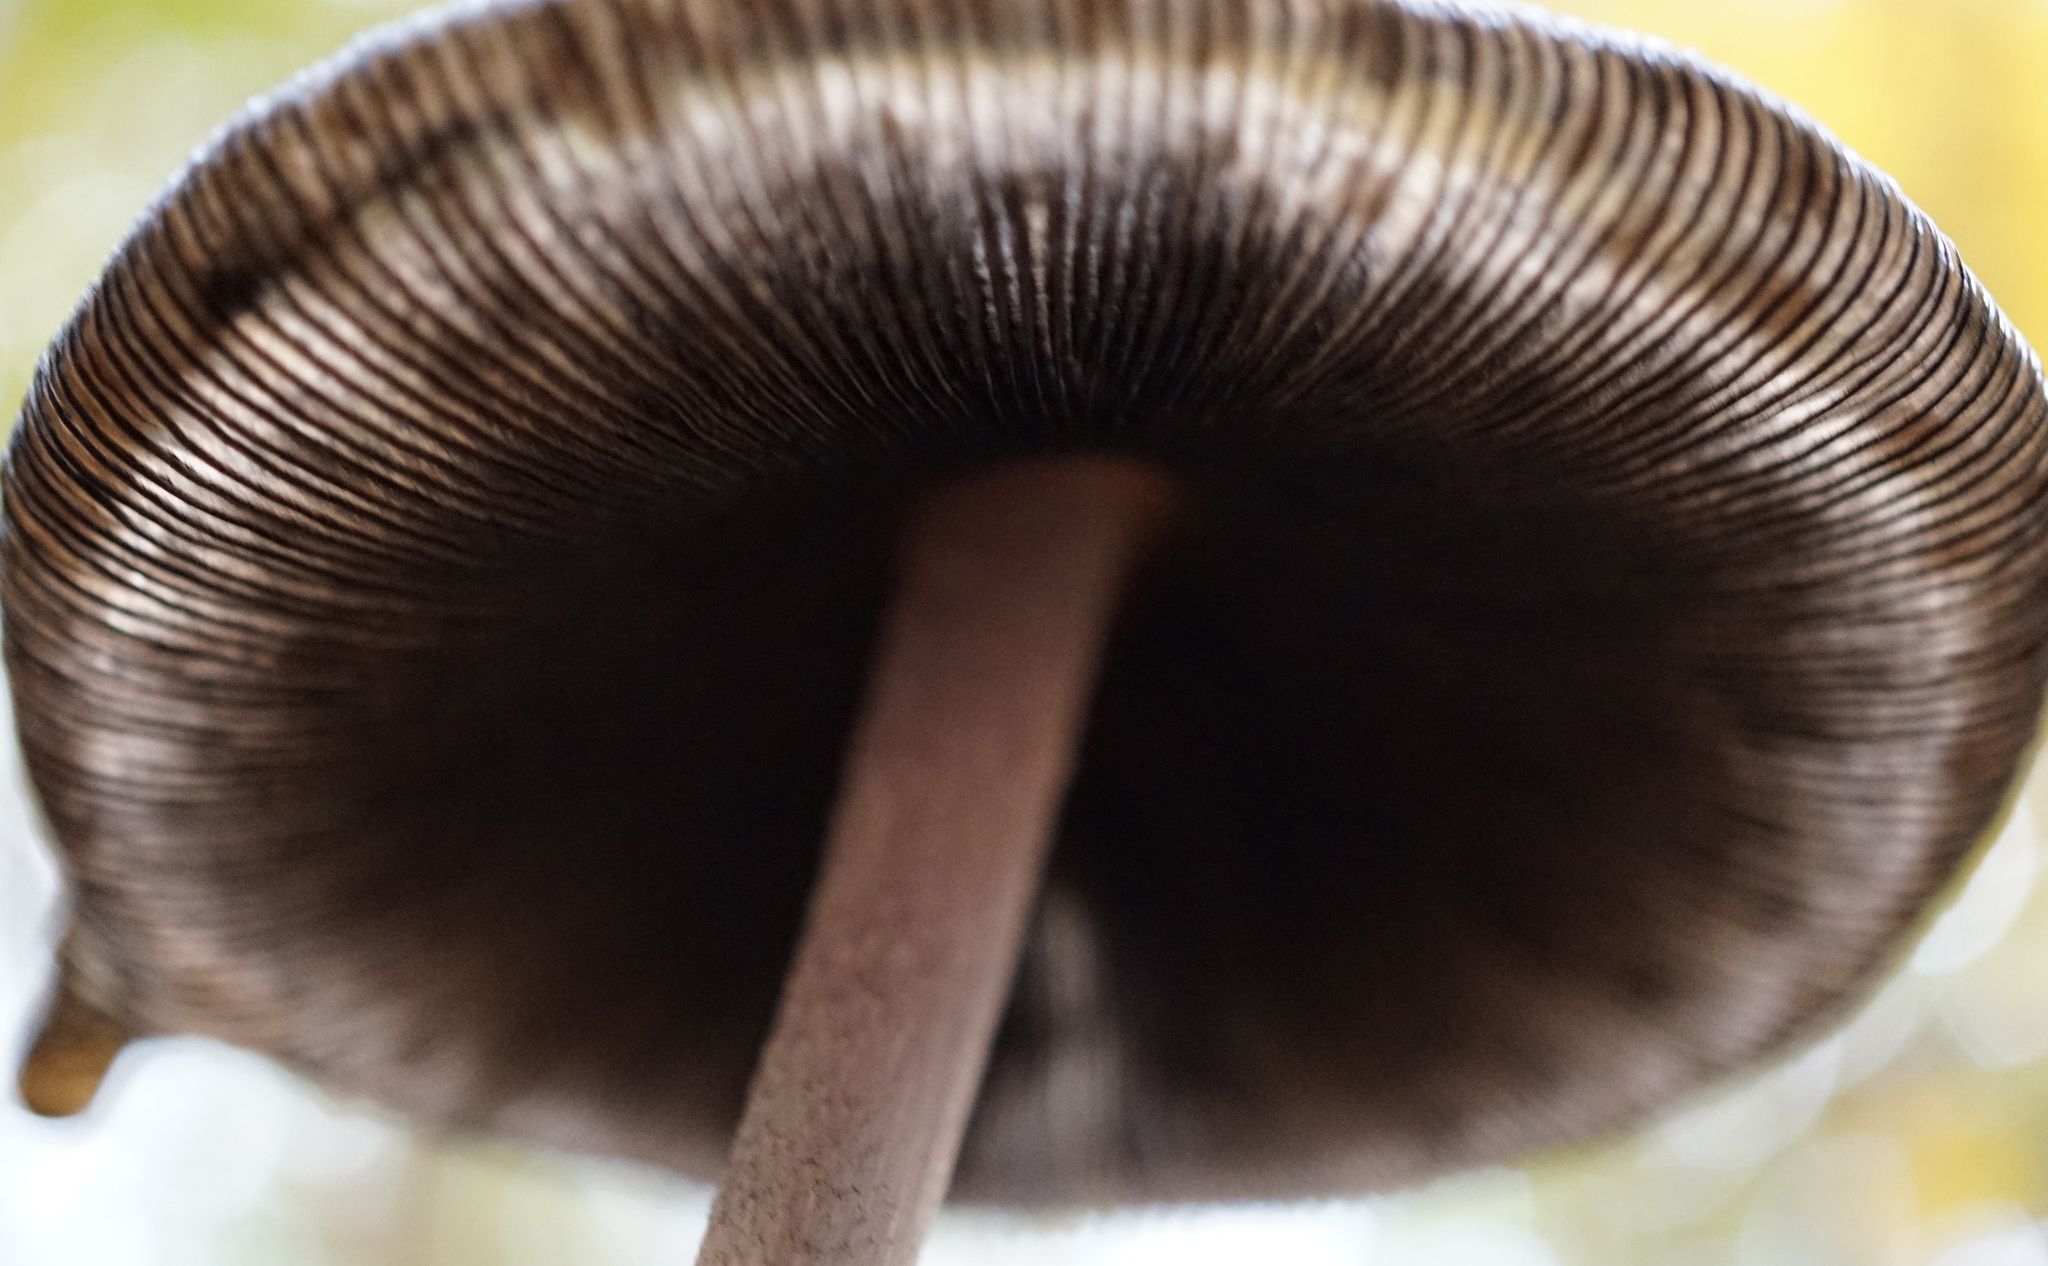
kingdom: Fungi
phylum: Basidiomycota
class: Agaricomycetes
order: Agaricales
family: Psathyrellaceae
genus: Coprinopsis
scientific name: Coprinopsis picacea
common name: Magpie inkcap
